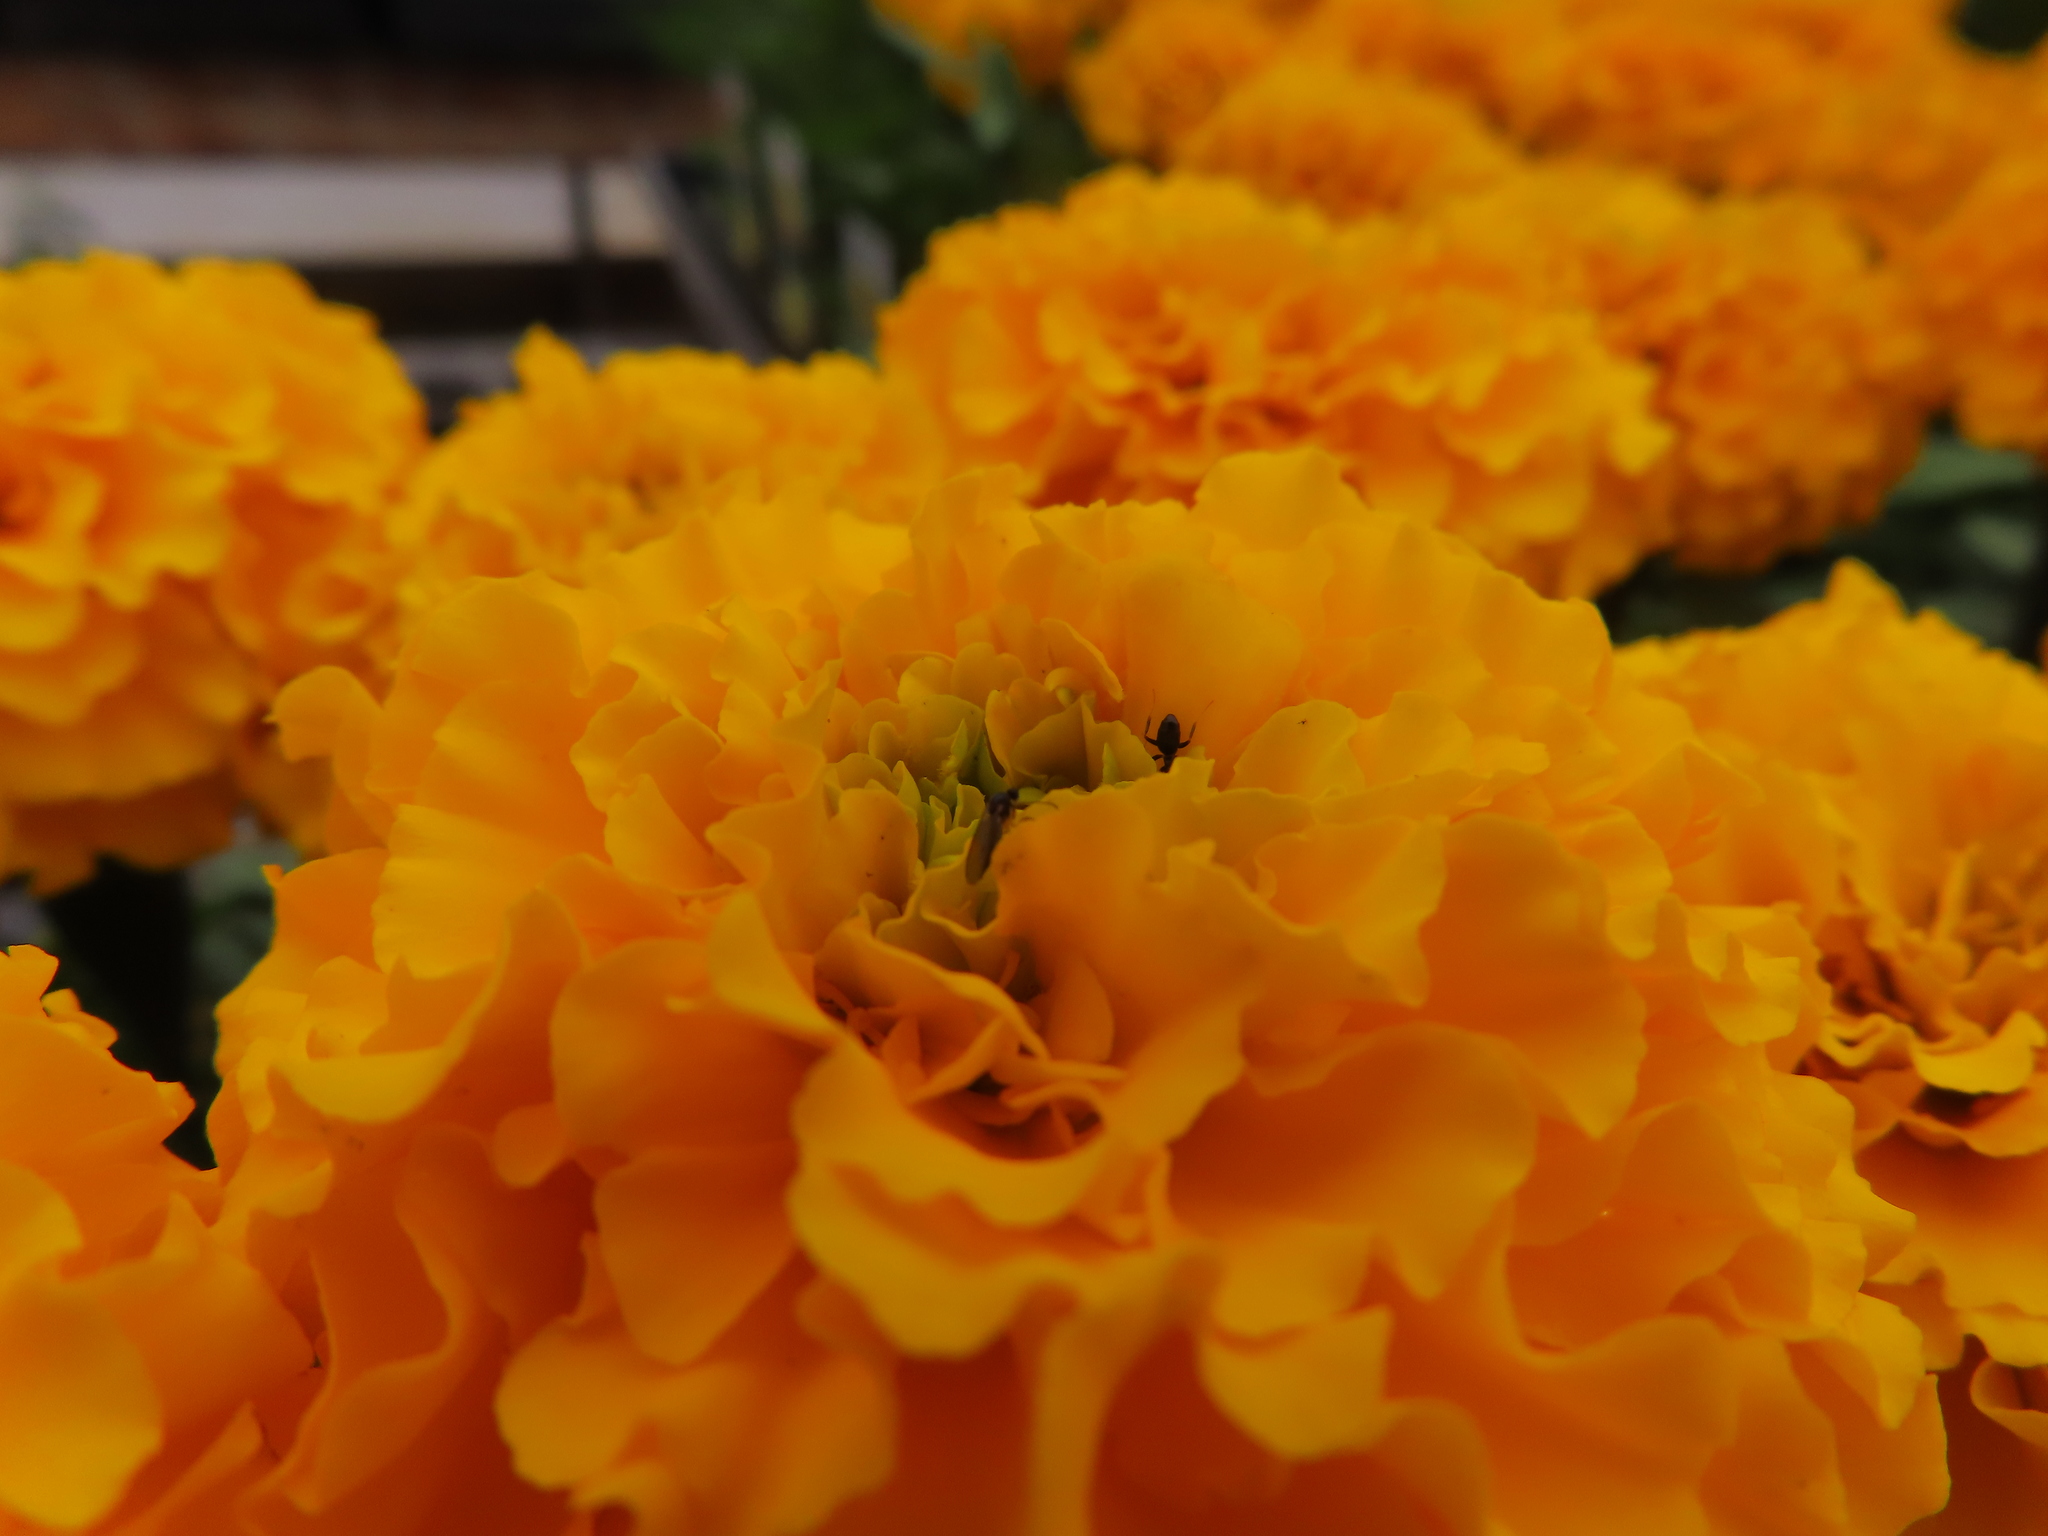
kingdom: Animalia
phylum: Arthropoda
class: Insecta
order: Hymenoptera
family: Formicidae
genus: Tapinoma
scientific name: Tapinoma sessile
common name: Odorous house ant
